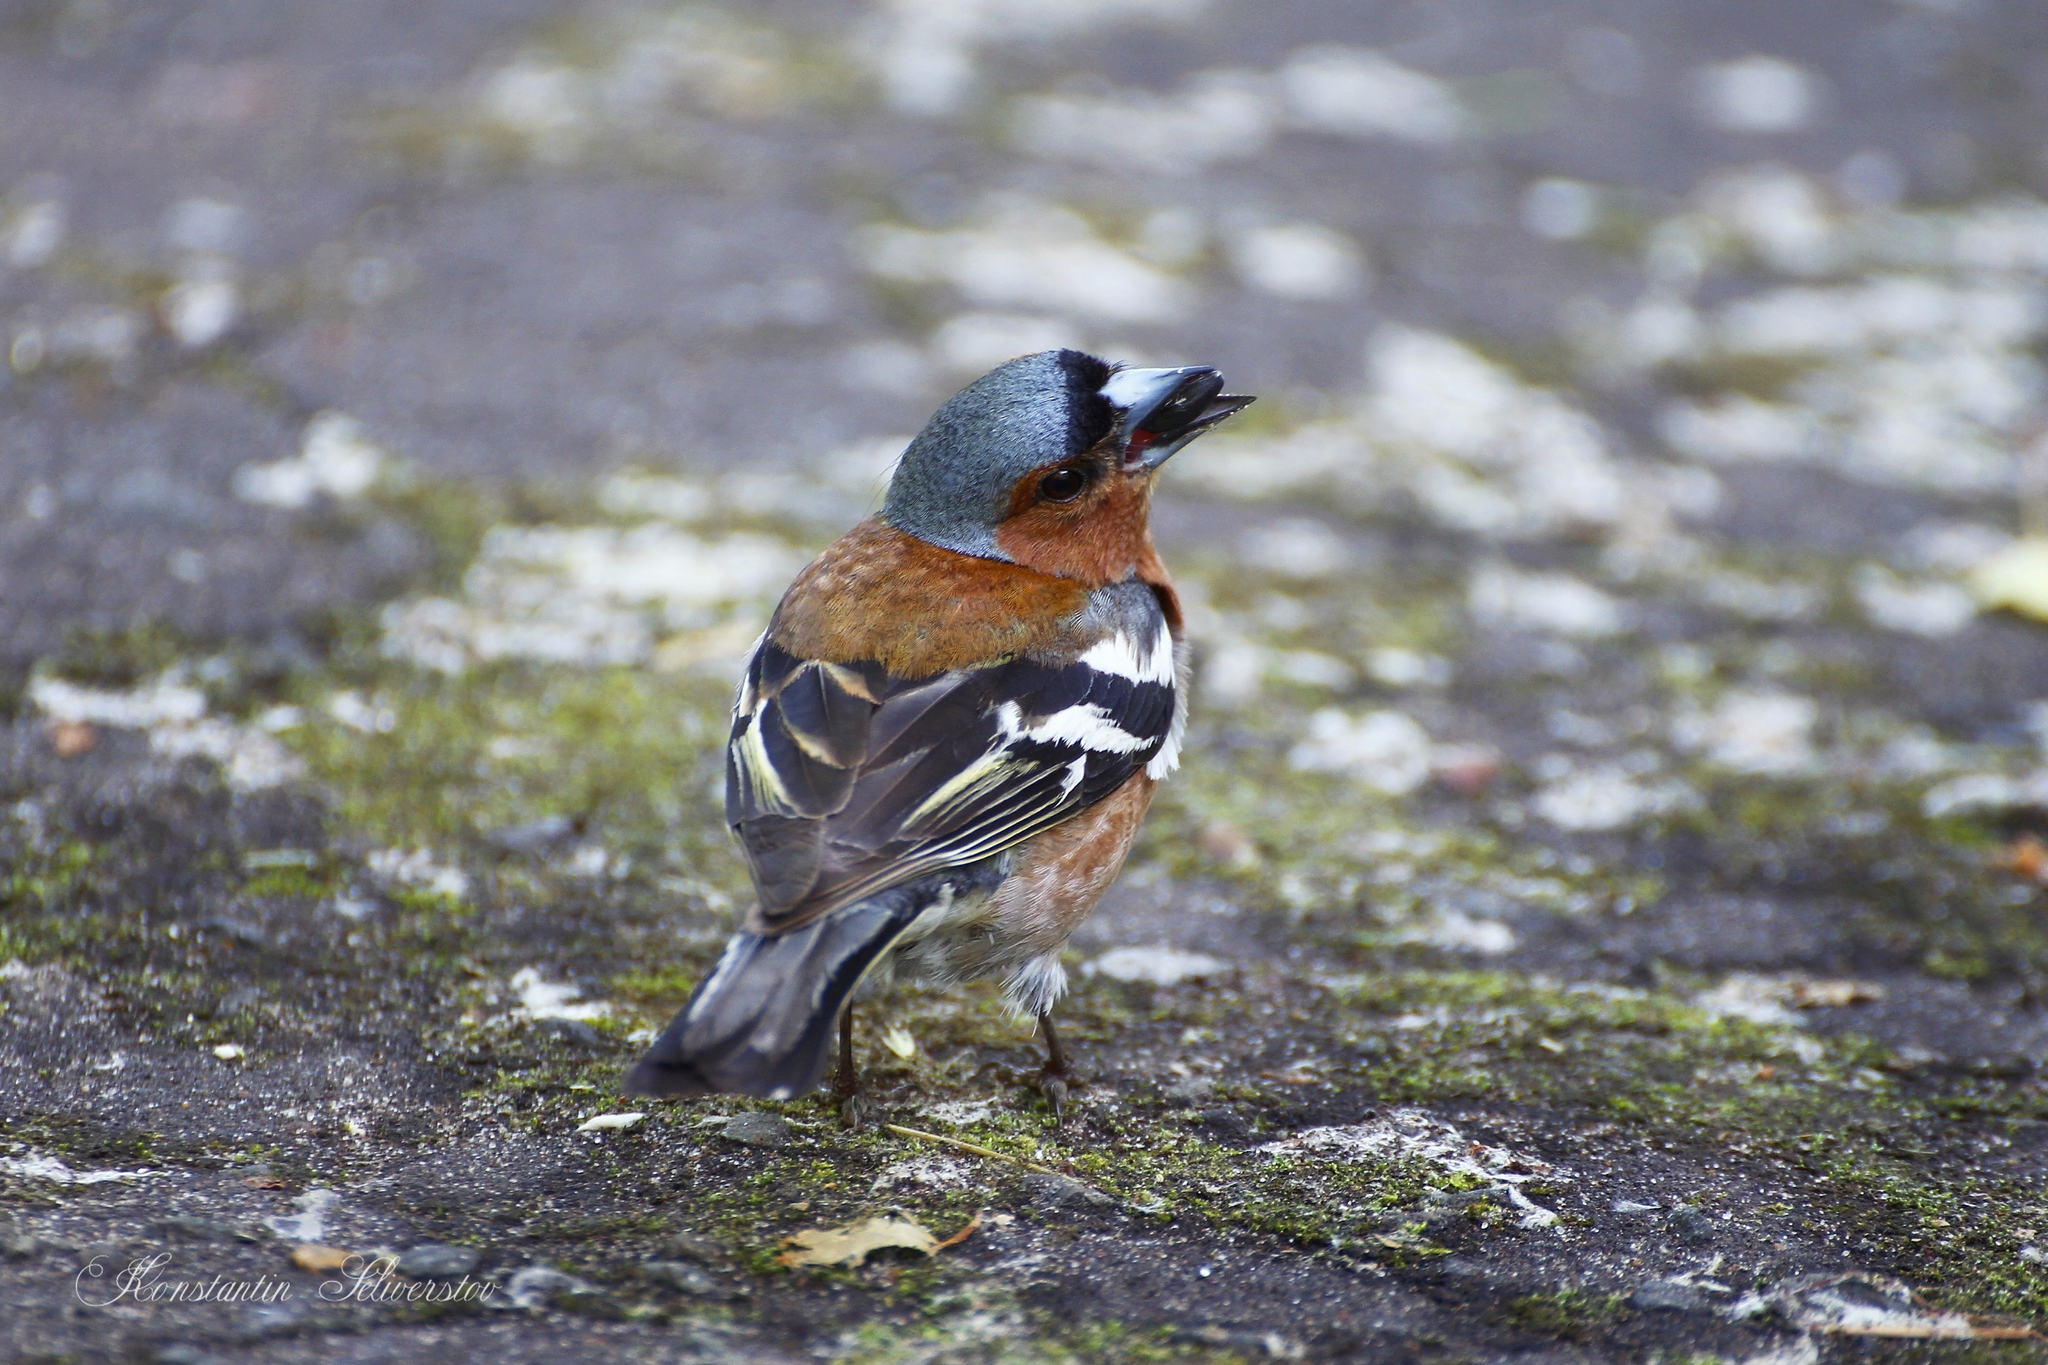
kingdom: Animalia
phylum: Chordata
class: Aves
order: Passeriformes
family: Fringillidae
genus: Fringilla
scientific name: Fringilla coelebs
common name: Common chaffinch
